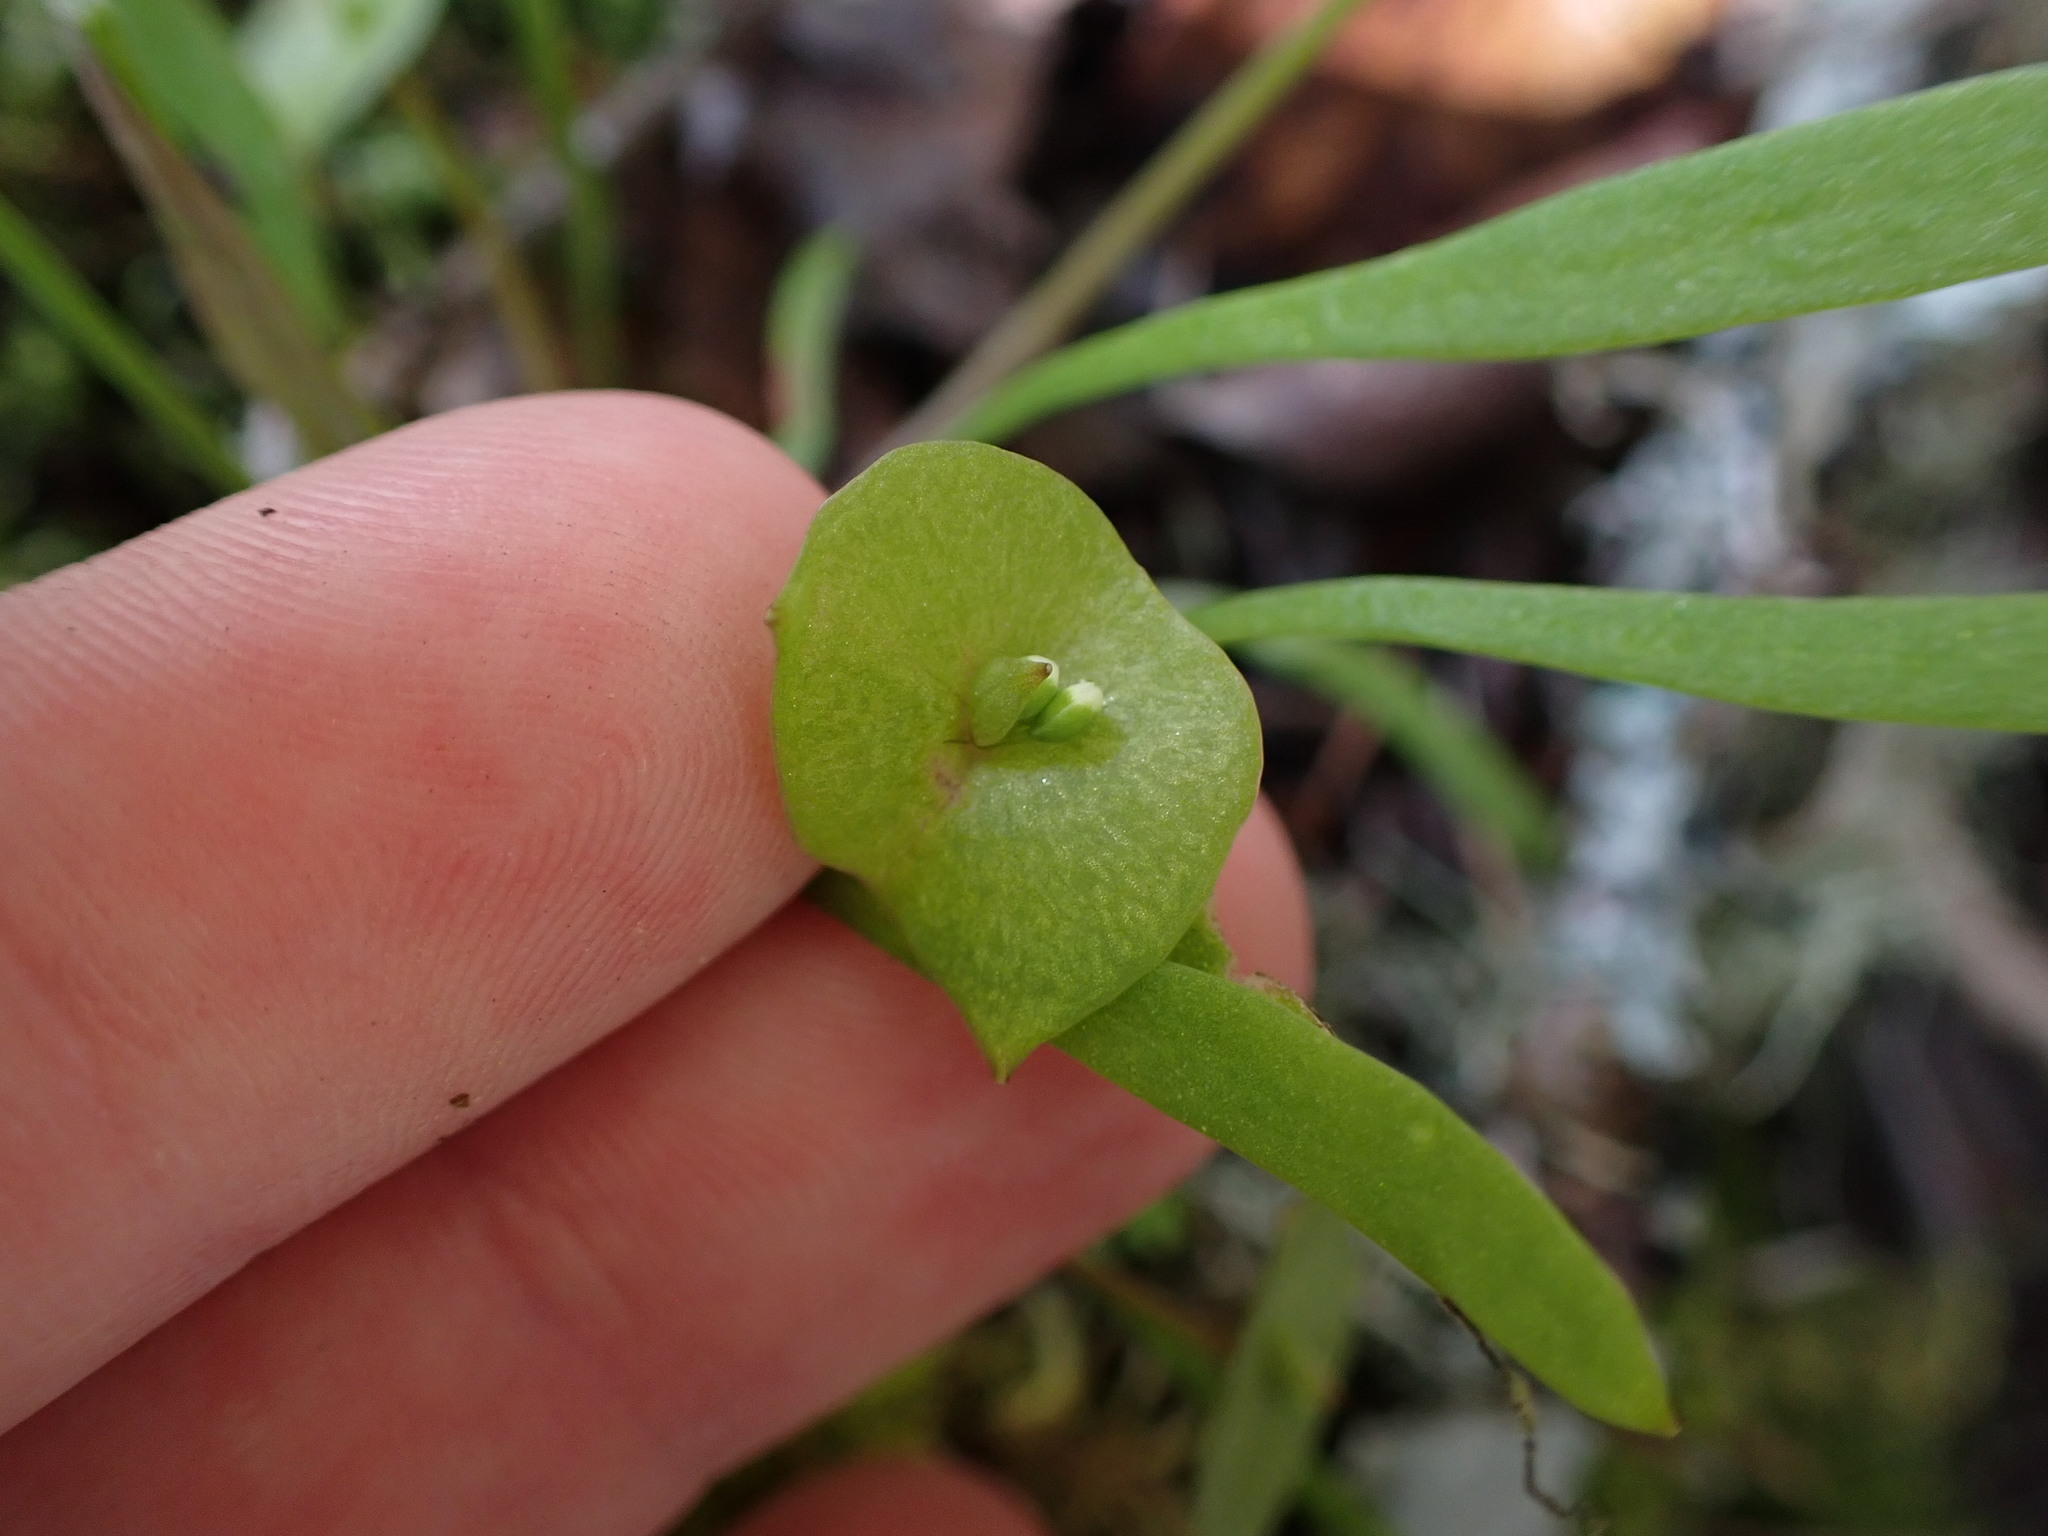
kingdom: Plantae
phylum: Tracheophyta
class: Magnoliopsida
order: Caryophyllales
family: Montiaceae
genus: Claytonia
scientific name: Claytonia parviflora
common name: Indian-lettuce
